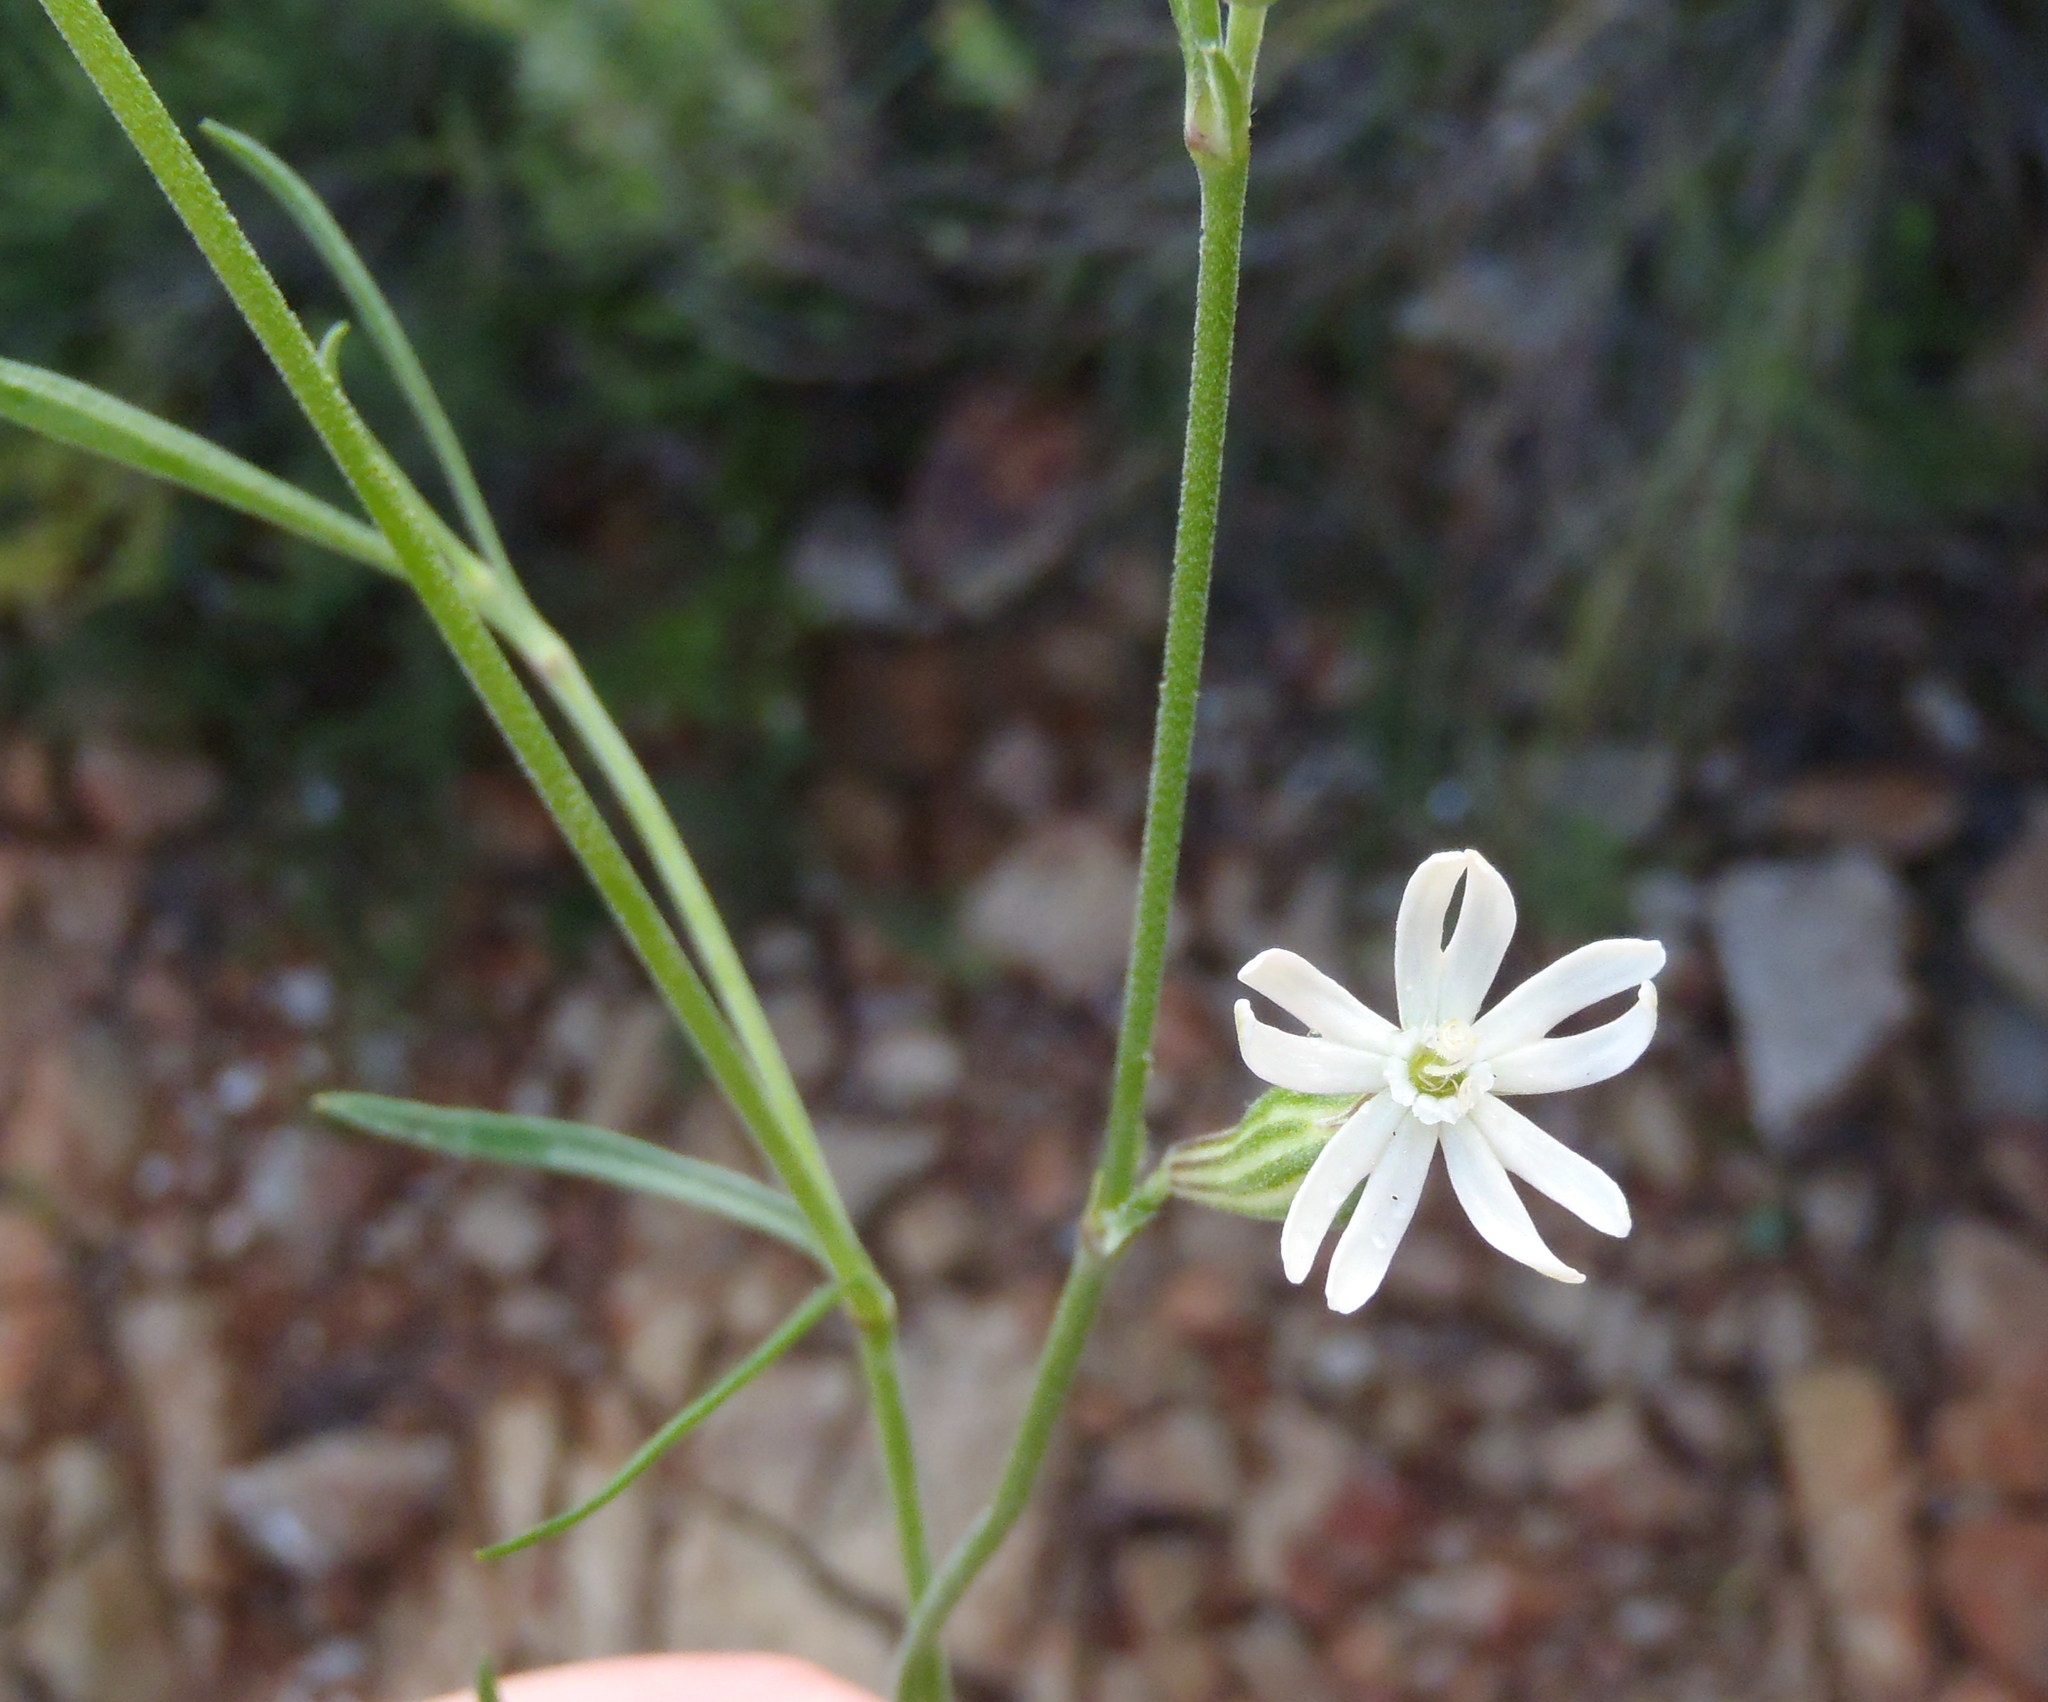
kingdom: Plantae
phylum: Tracheophyta
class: Magnoliopsida
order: Caryophyllales
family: Caryophyllaceae
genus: Silene
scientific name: Silene burchellii
